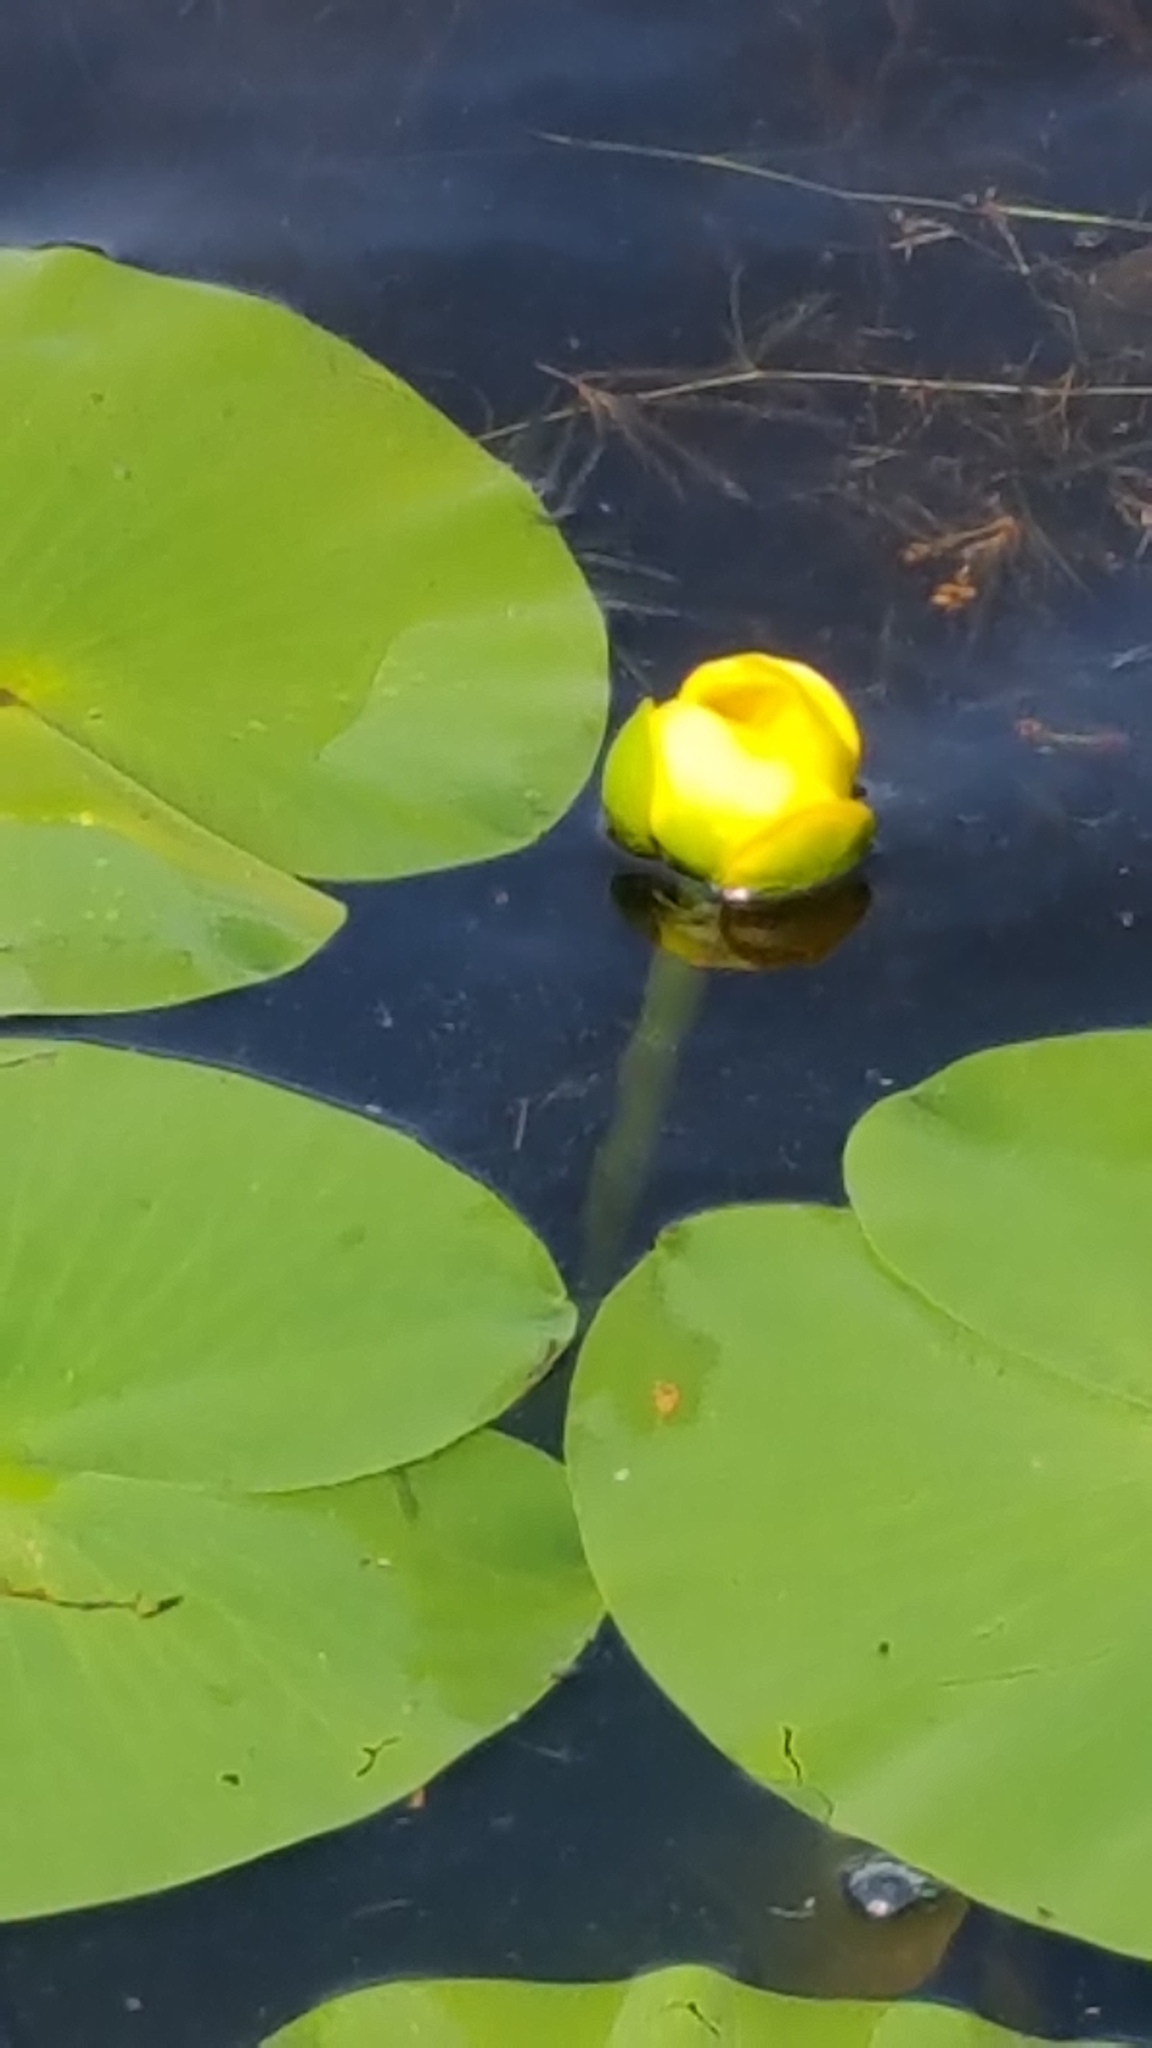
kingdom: Plantae
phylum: Tracheophyta
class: Magnoliopsida
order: Nymphaeales
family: Nymphaeaceae
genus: Nuphar
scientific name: Nuphar variegata
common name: Beaver-root
